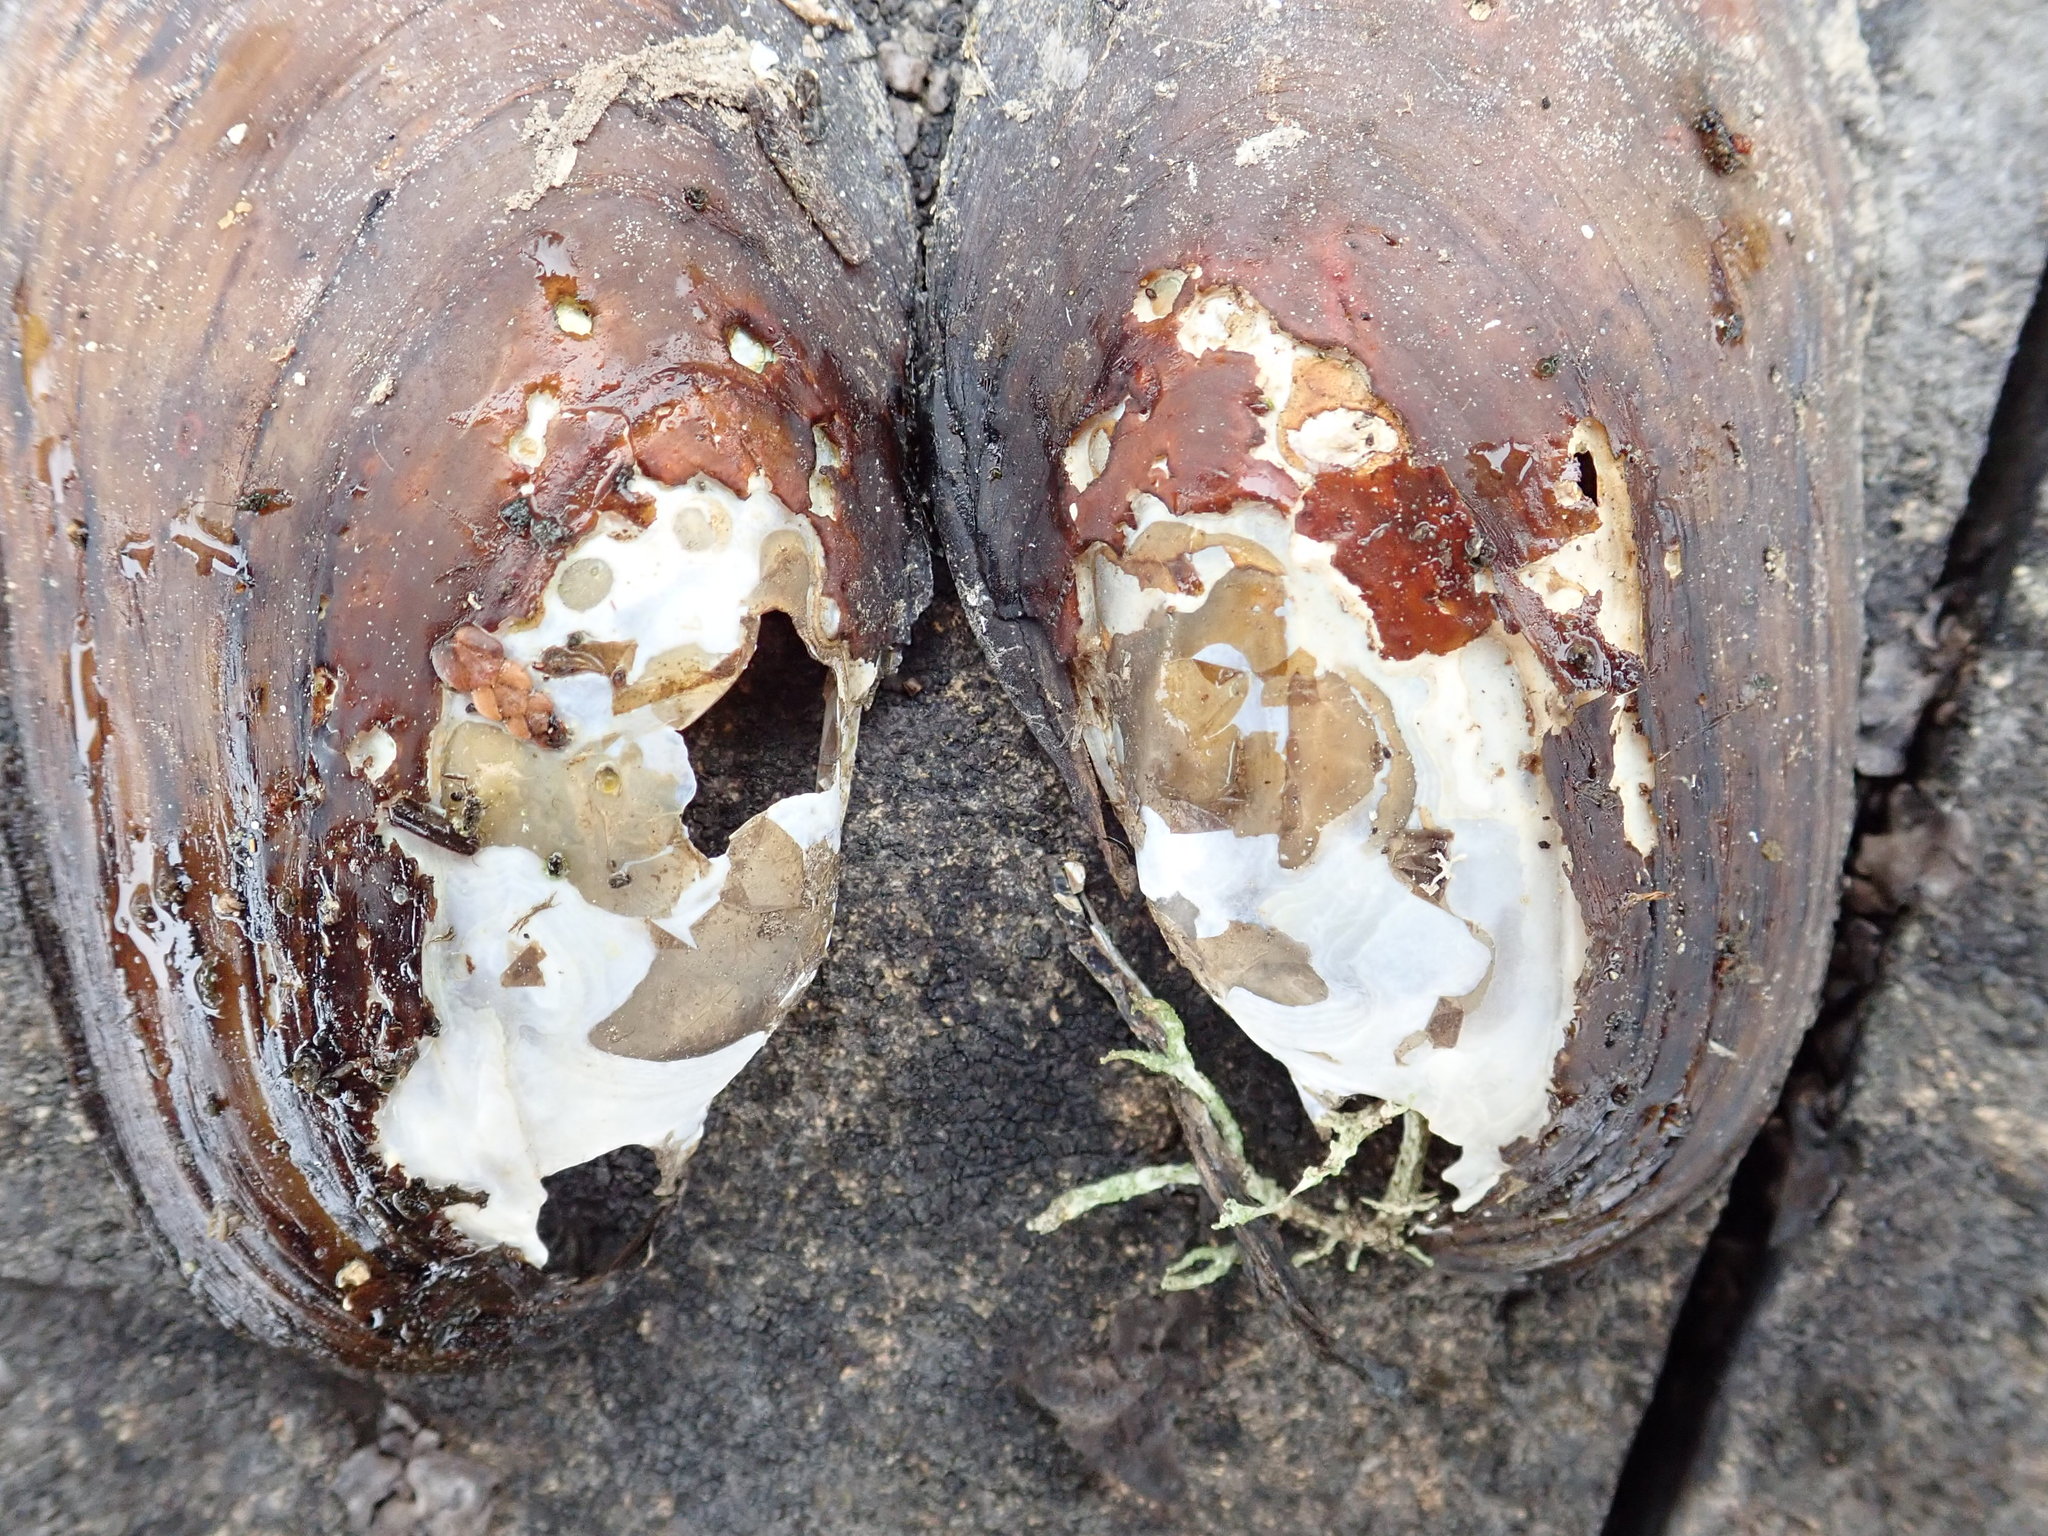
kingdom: Animalia
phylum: Mollusca
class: Bivalvia
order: Unionida
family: Unionidae
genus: Lampsilis
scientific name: Lampsilis siliquoidea
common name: Fatmucket
